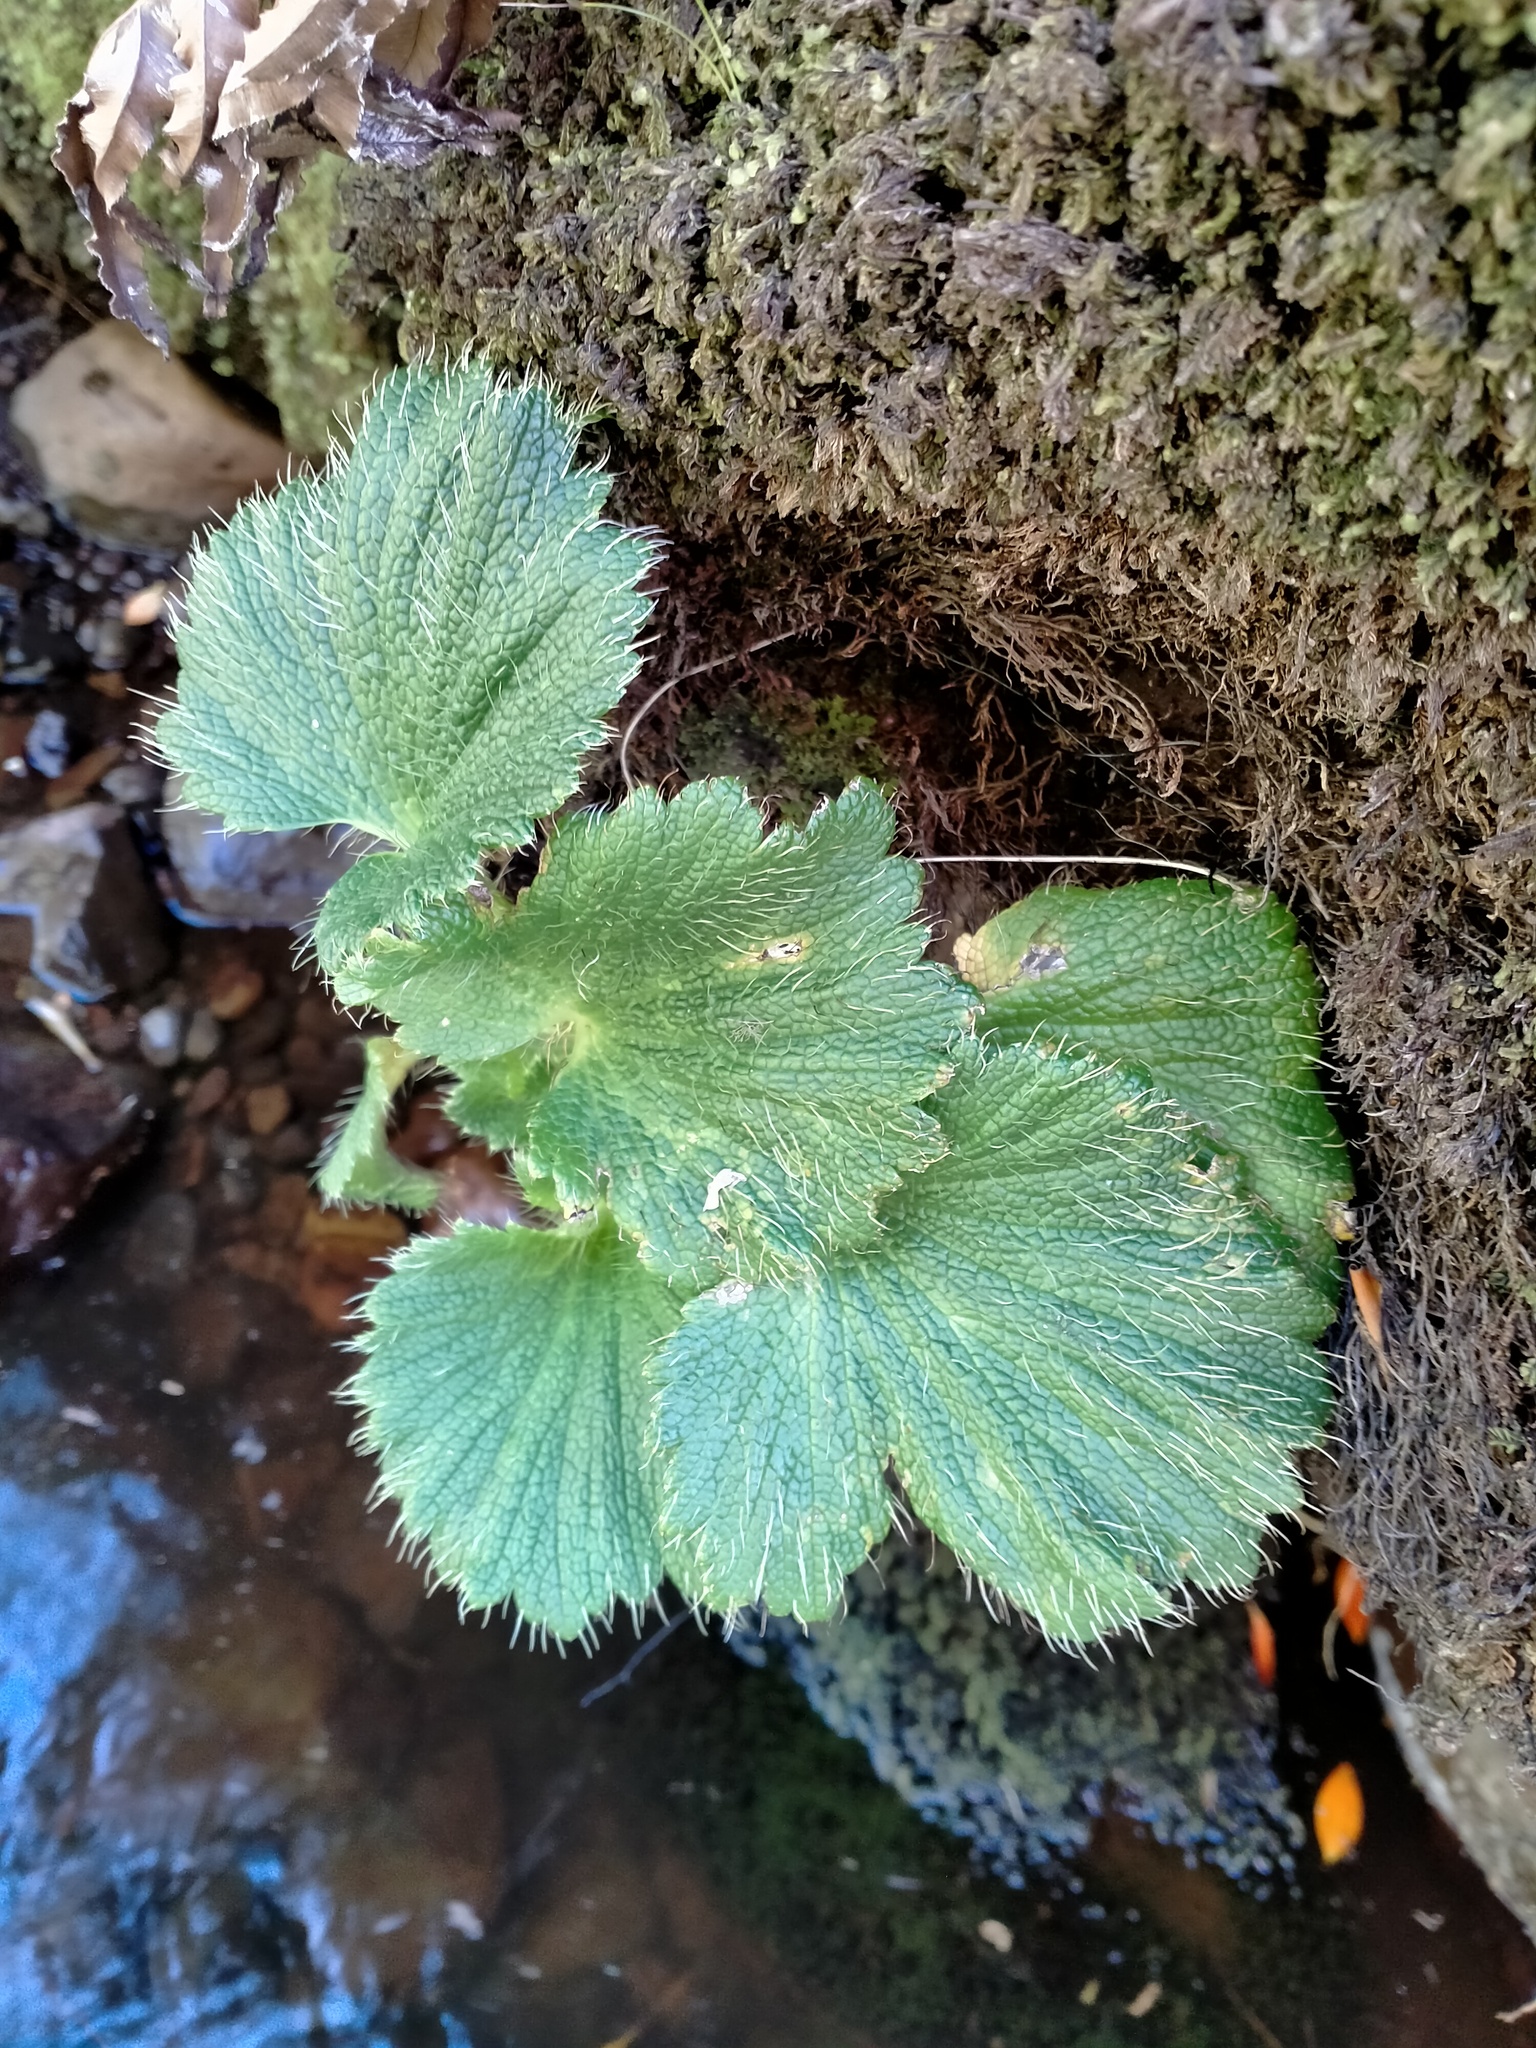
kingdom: Plantae
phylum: Tracheophyta
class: Magnoliopsida
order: Apiales
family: Apiaceae
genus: Azorella
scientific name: Azorella polaris
